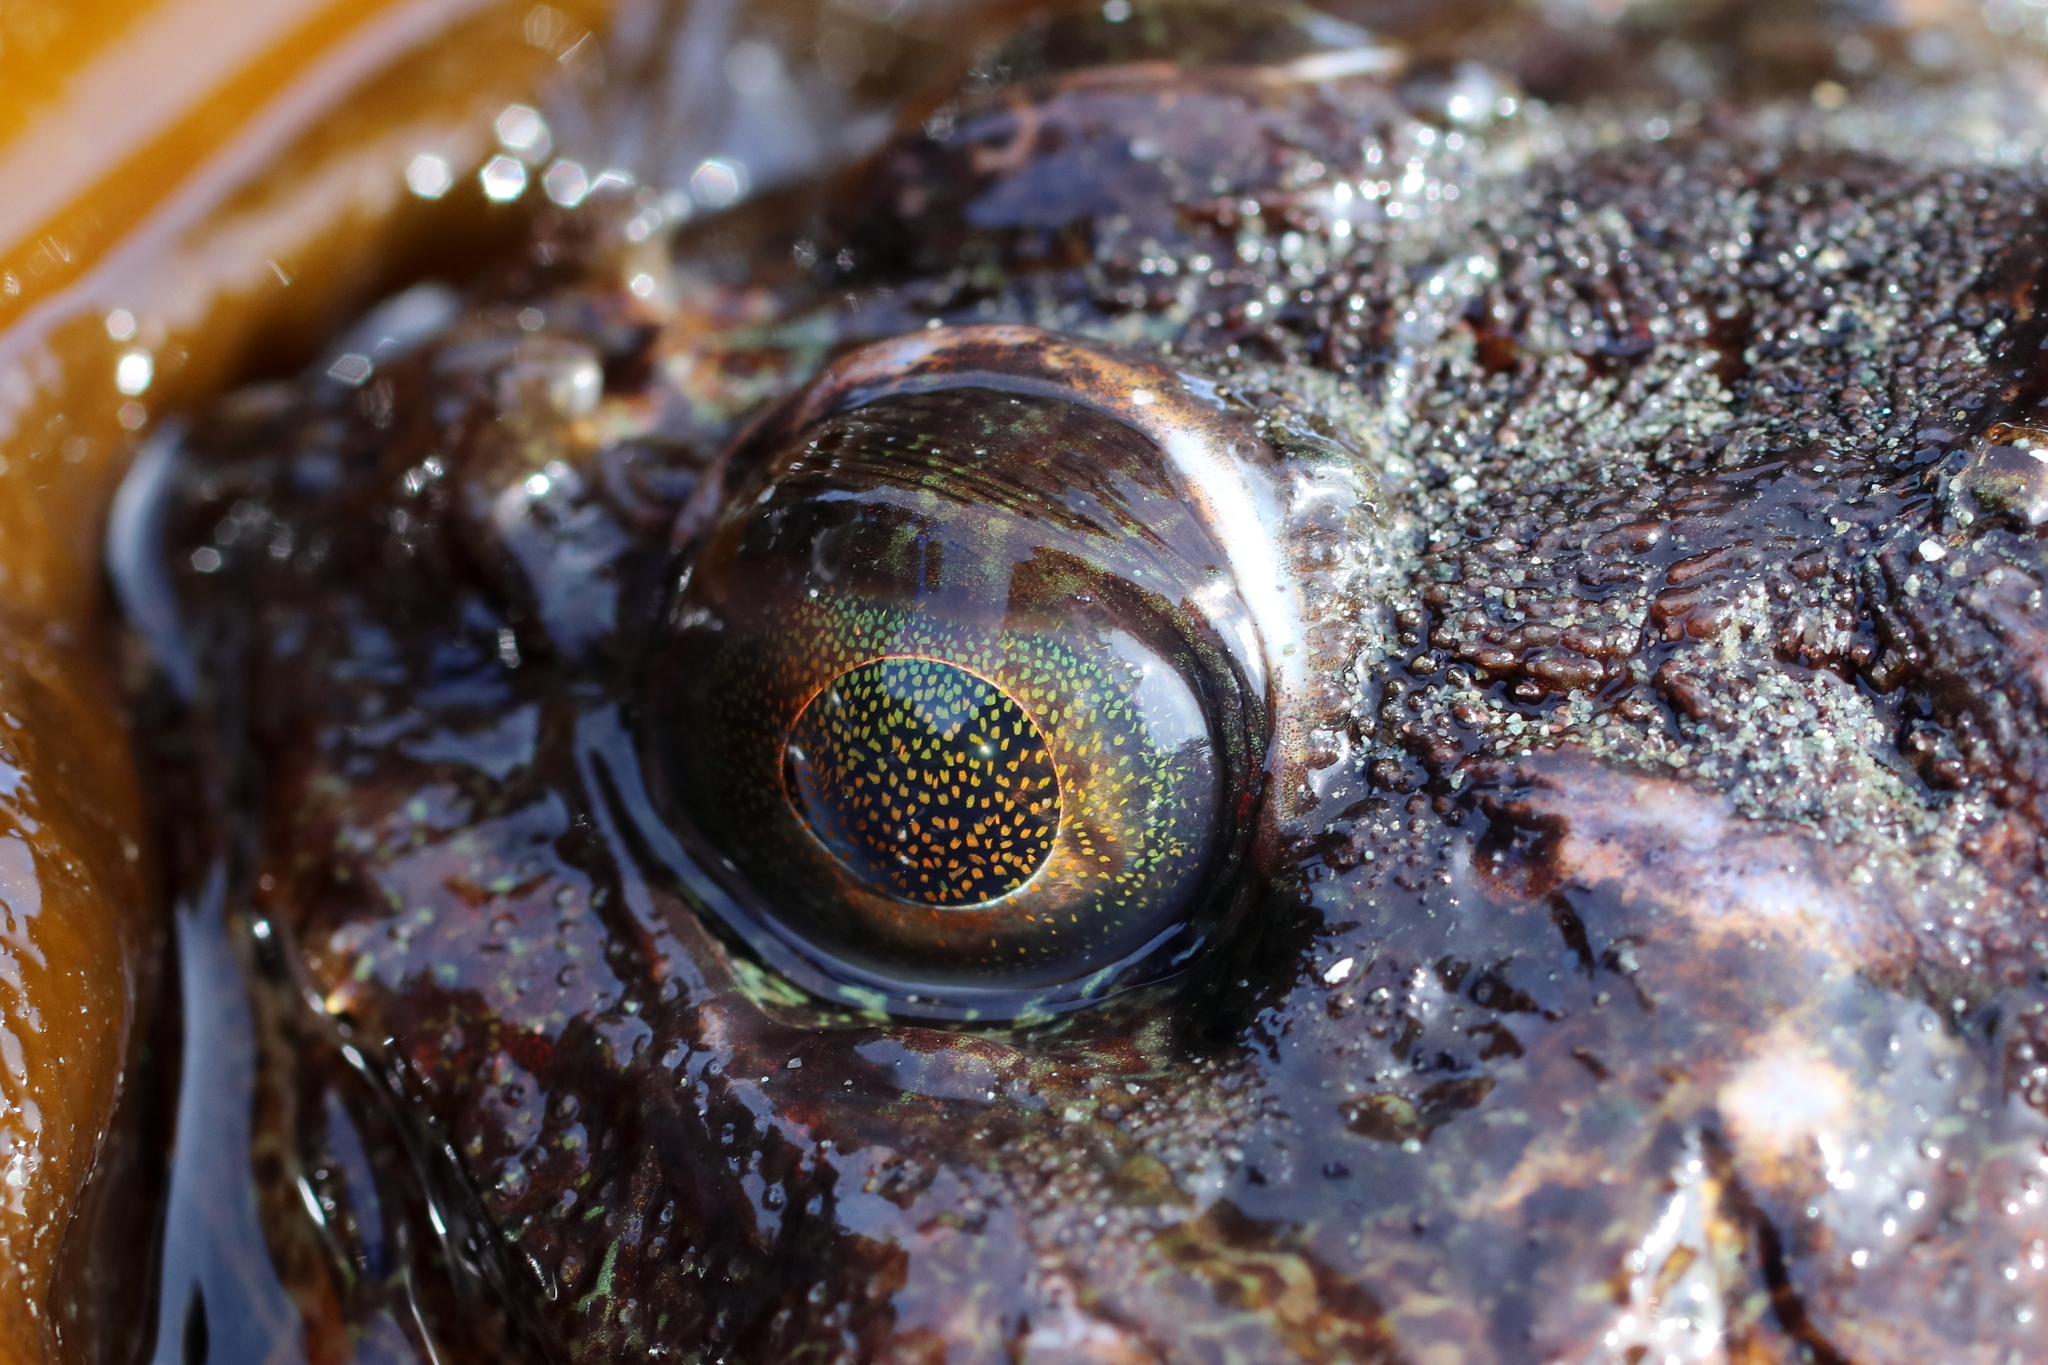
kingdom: Animalia
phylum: Chordata
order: Scorpaeniformes
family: Cottidae
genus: Hemilepidotus
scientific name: Hemilepidotus hemilepidotus
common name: Red irish lord
